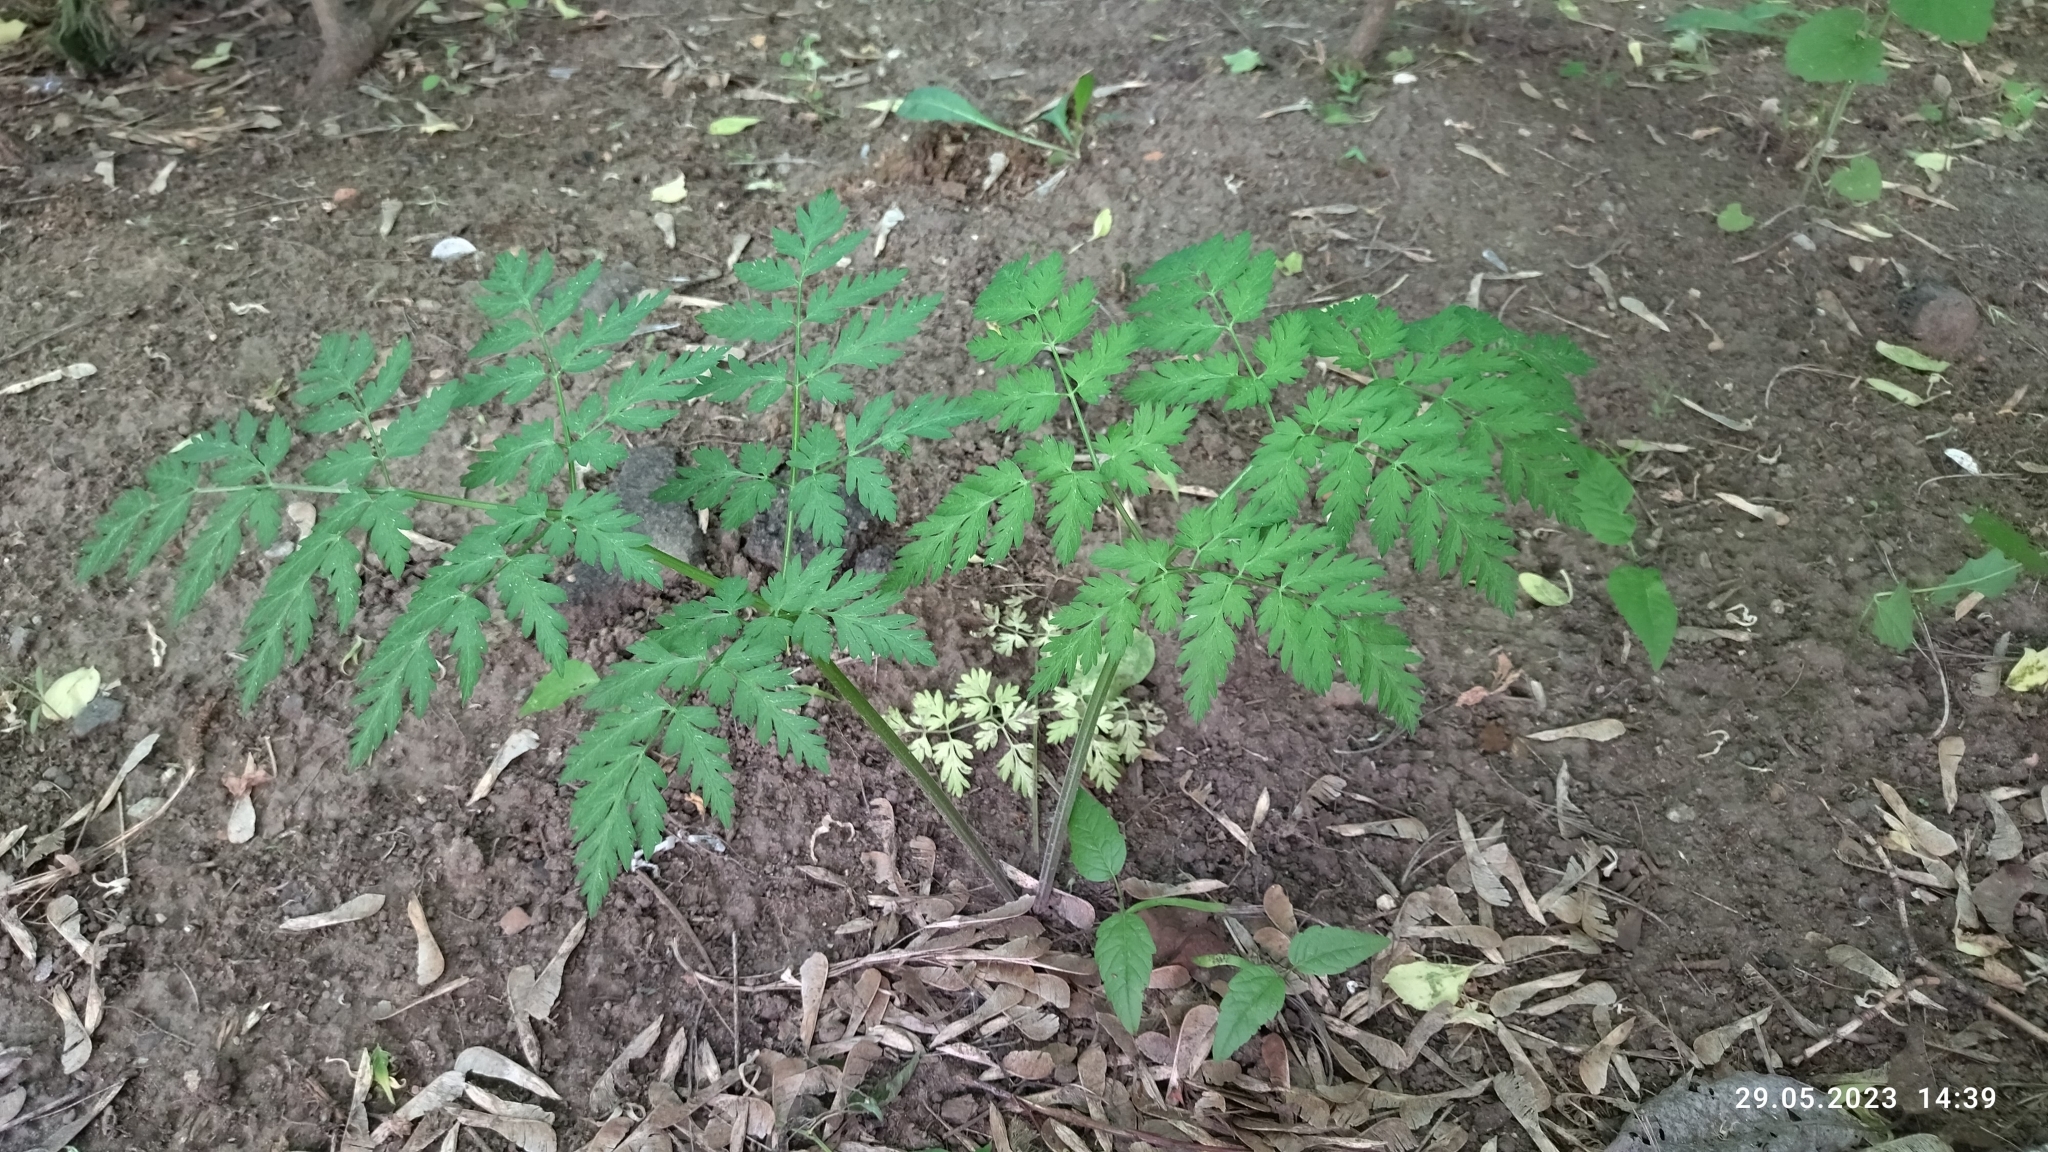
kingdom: Plantae
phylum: Tracheophyta
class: Magnoliopsida
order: Apiales
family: Apiaceae
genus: Anthriscus
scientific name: Anthriscus sylvestris
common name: Cow parsley
